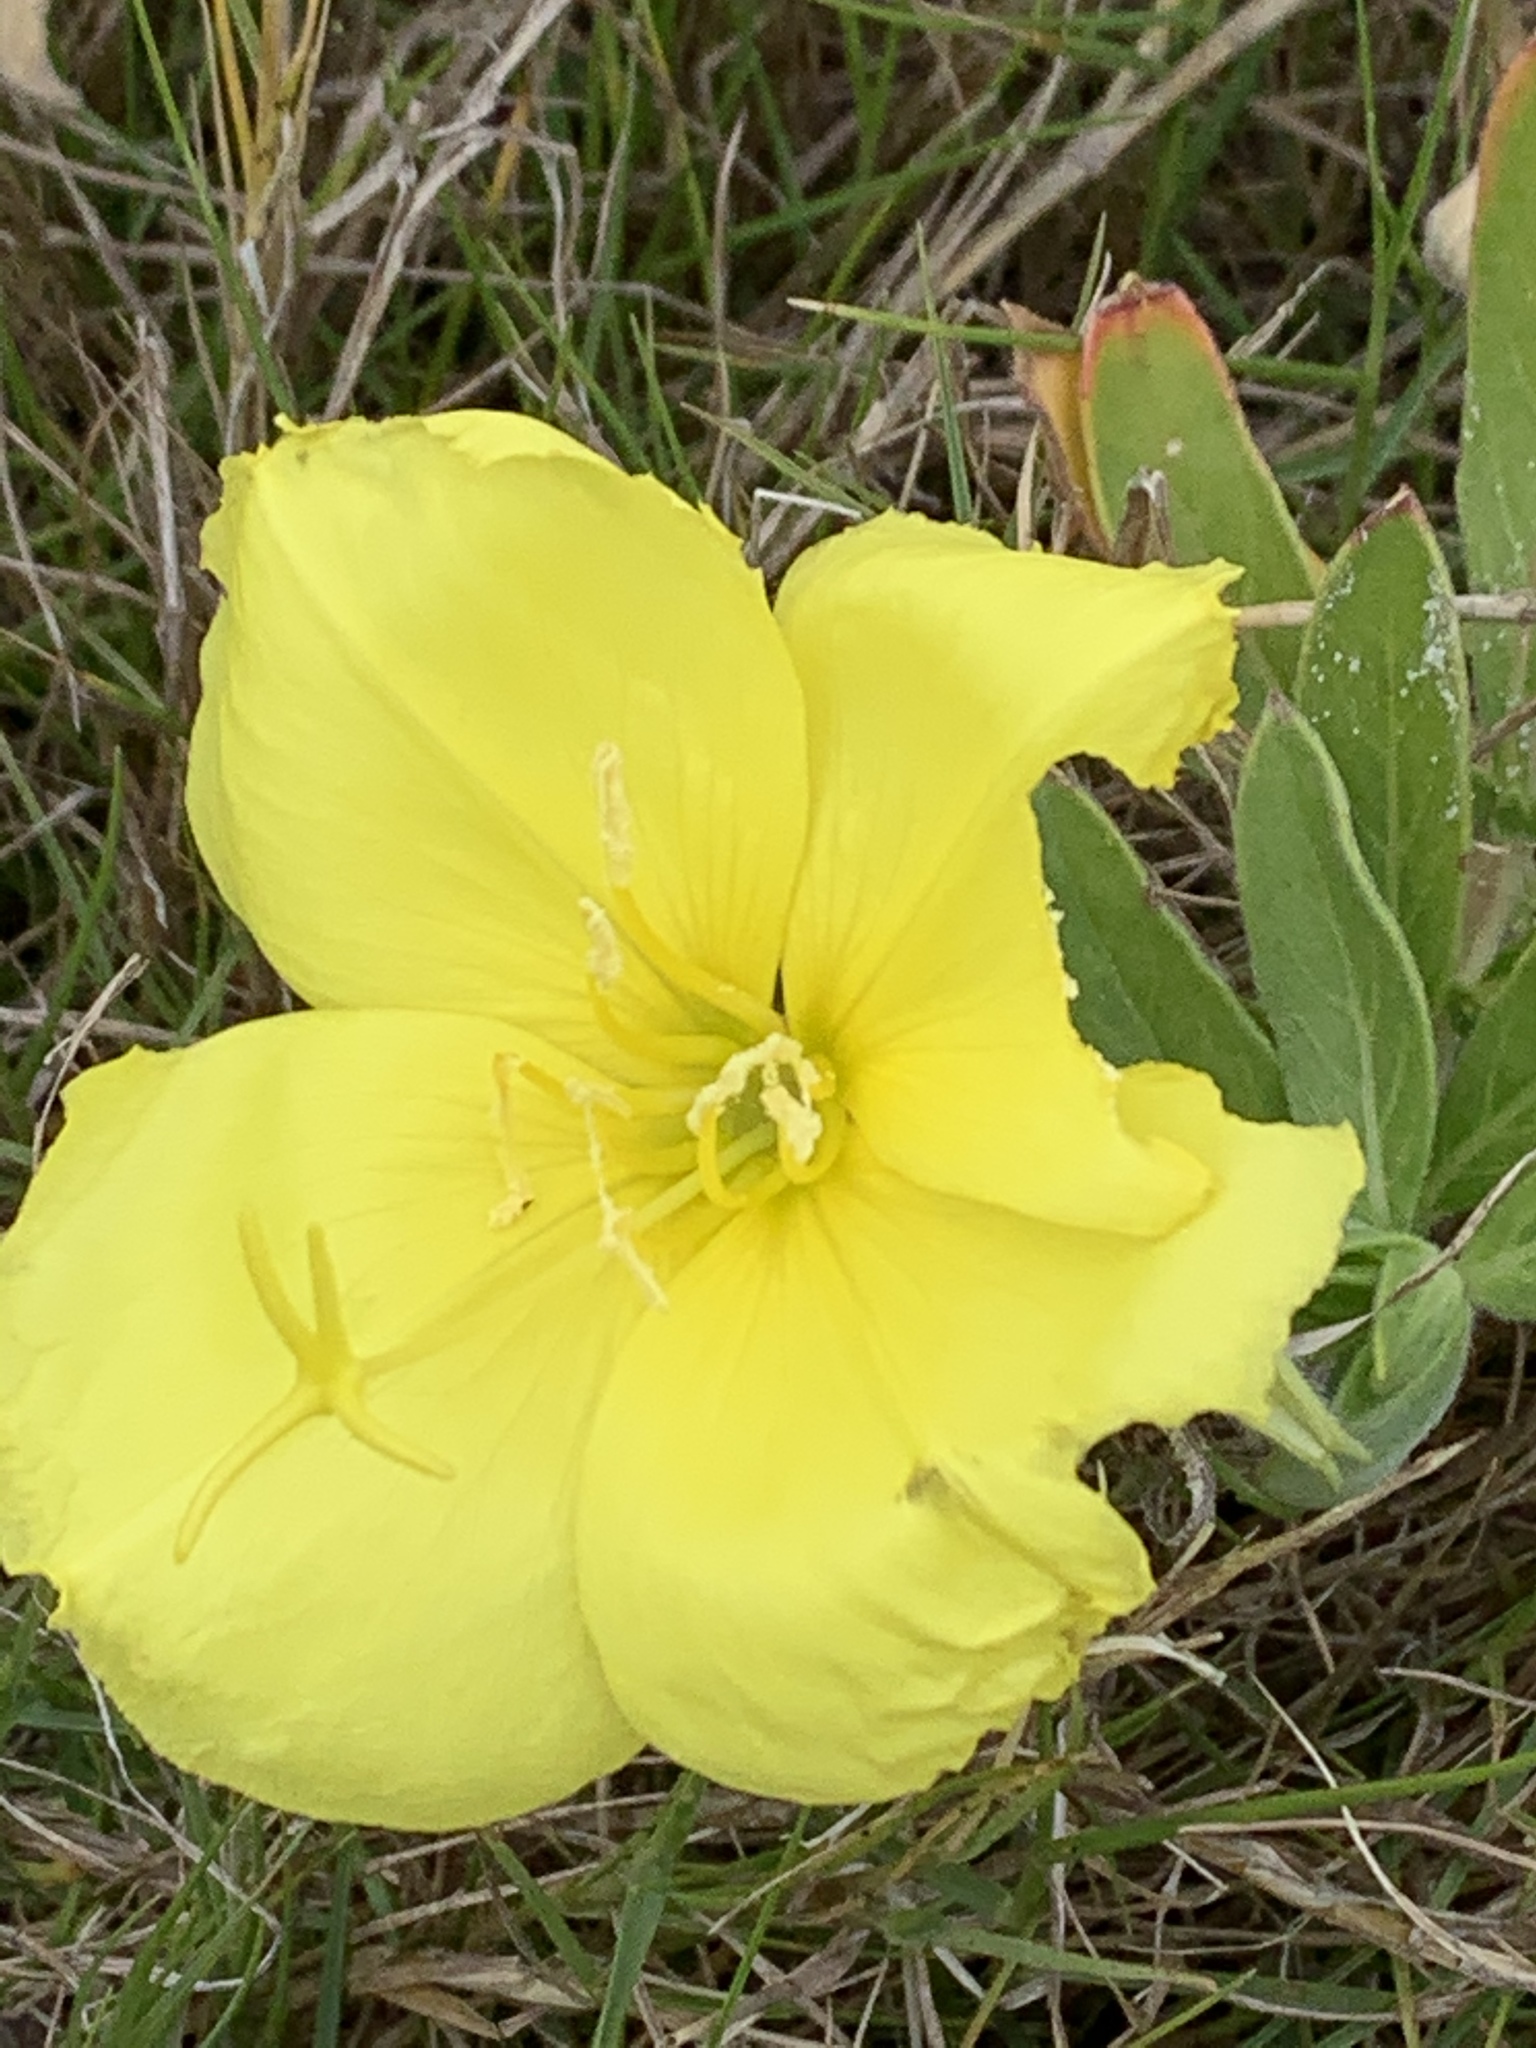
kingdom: Plantae
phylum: Tracheophyta
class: Magnoliopsida
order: Myrtales
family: Onagraceae
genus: Oenothera
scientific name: Oenothera drummondii
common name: Beach evening-primrose
